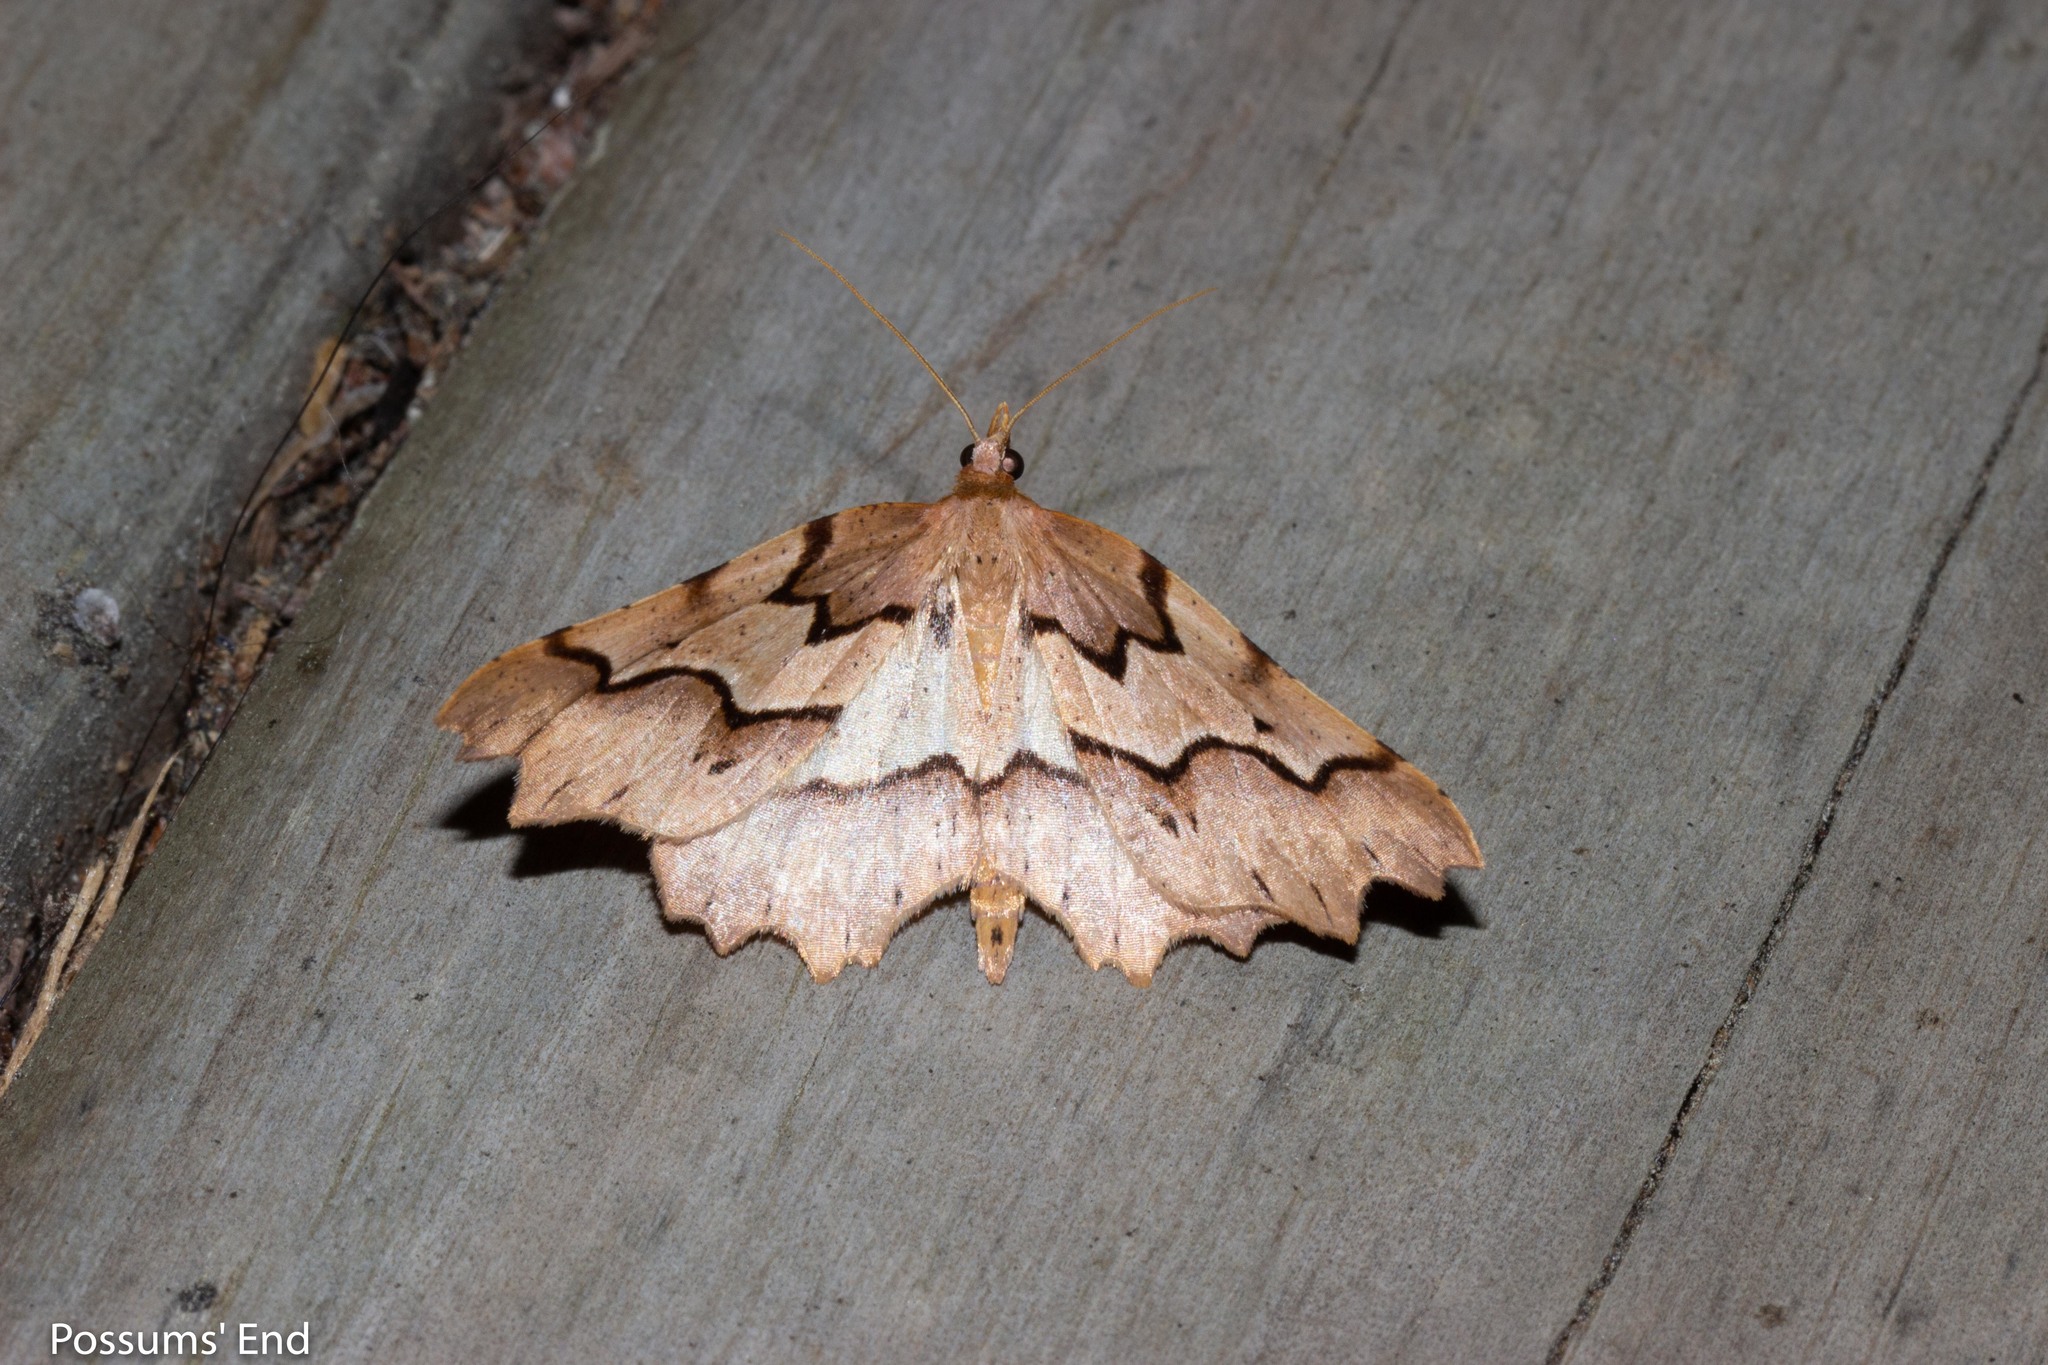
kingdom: Animalia
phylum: Arthropoda
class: Insecta
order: Lepidoptera
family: Geometridae
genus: Ischalis
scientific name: Ischalis fortinata
